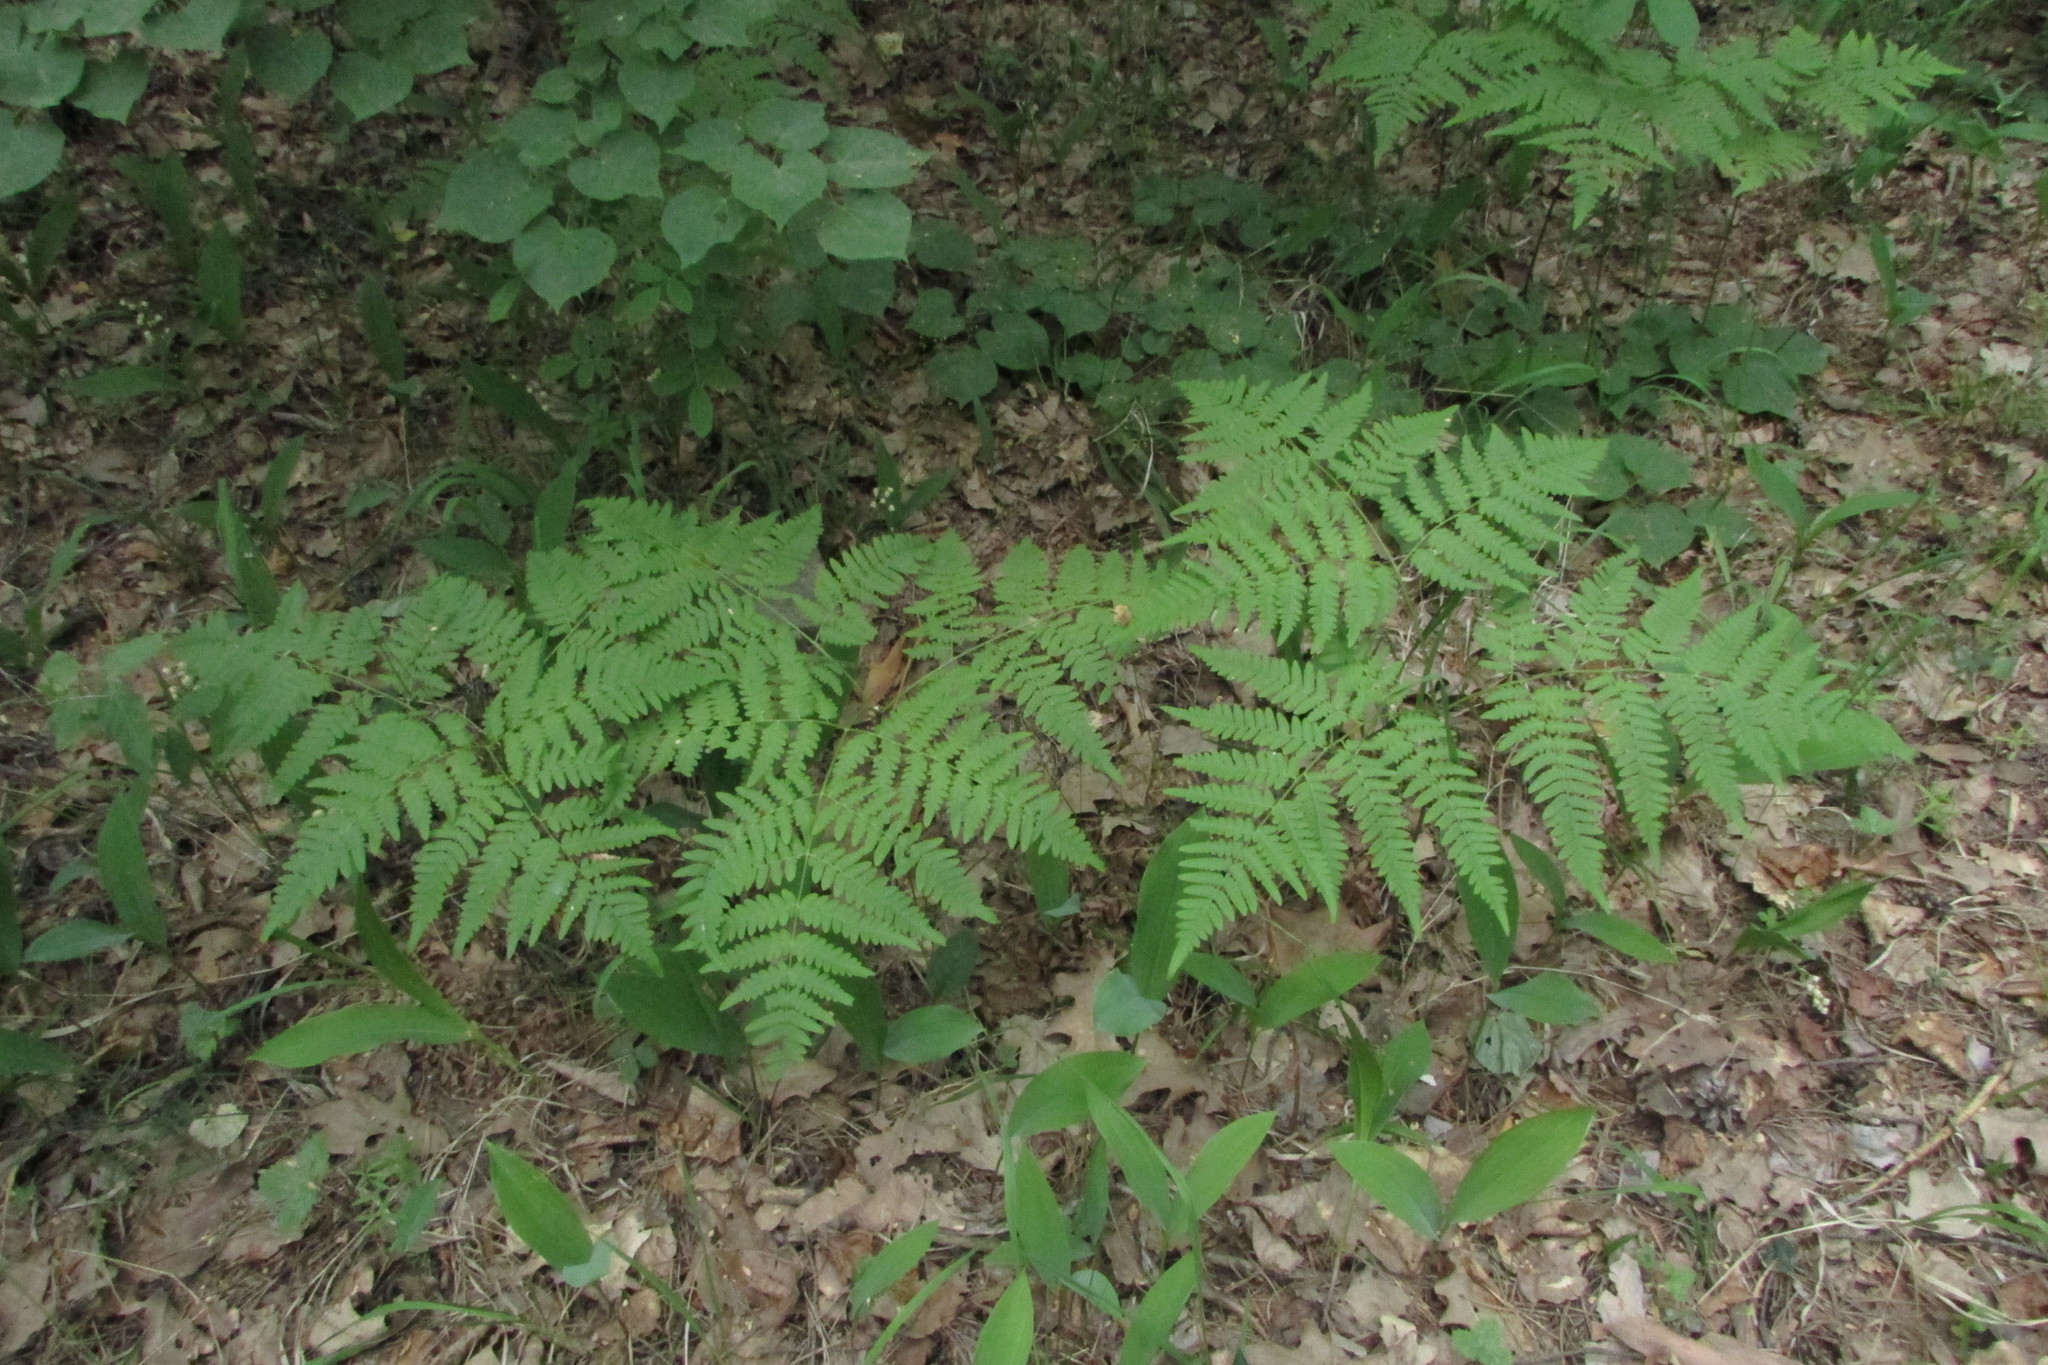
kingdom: Plantae
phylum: Tracheophyta
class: Polypodiopsida
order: Polypodiales
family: Dennstaedtiaceae
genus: Pteridium
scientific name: Pteridium aquilinum
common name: Bracken
